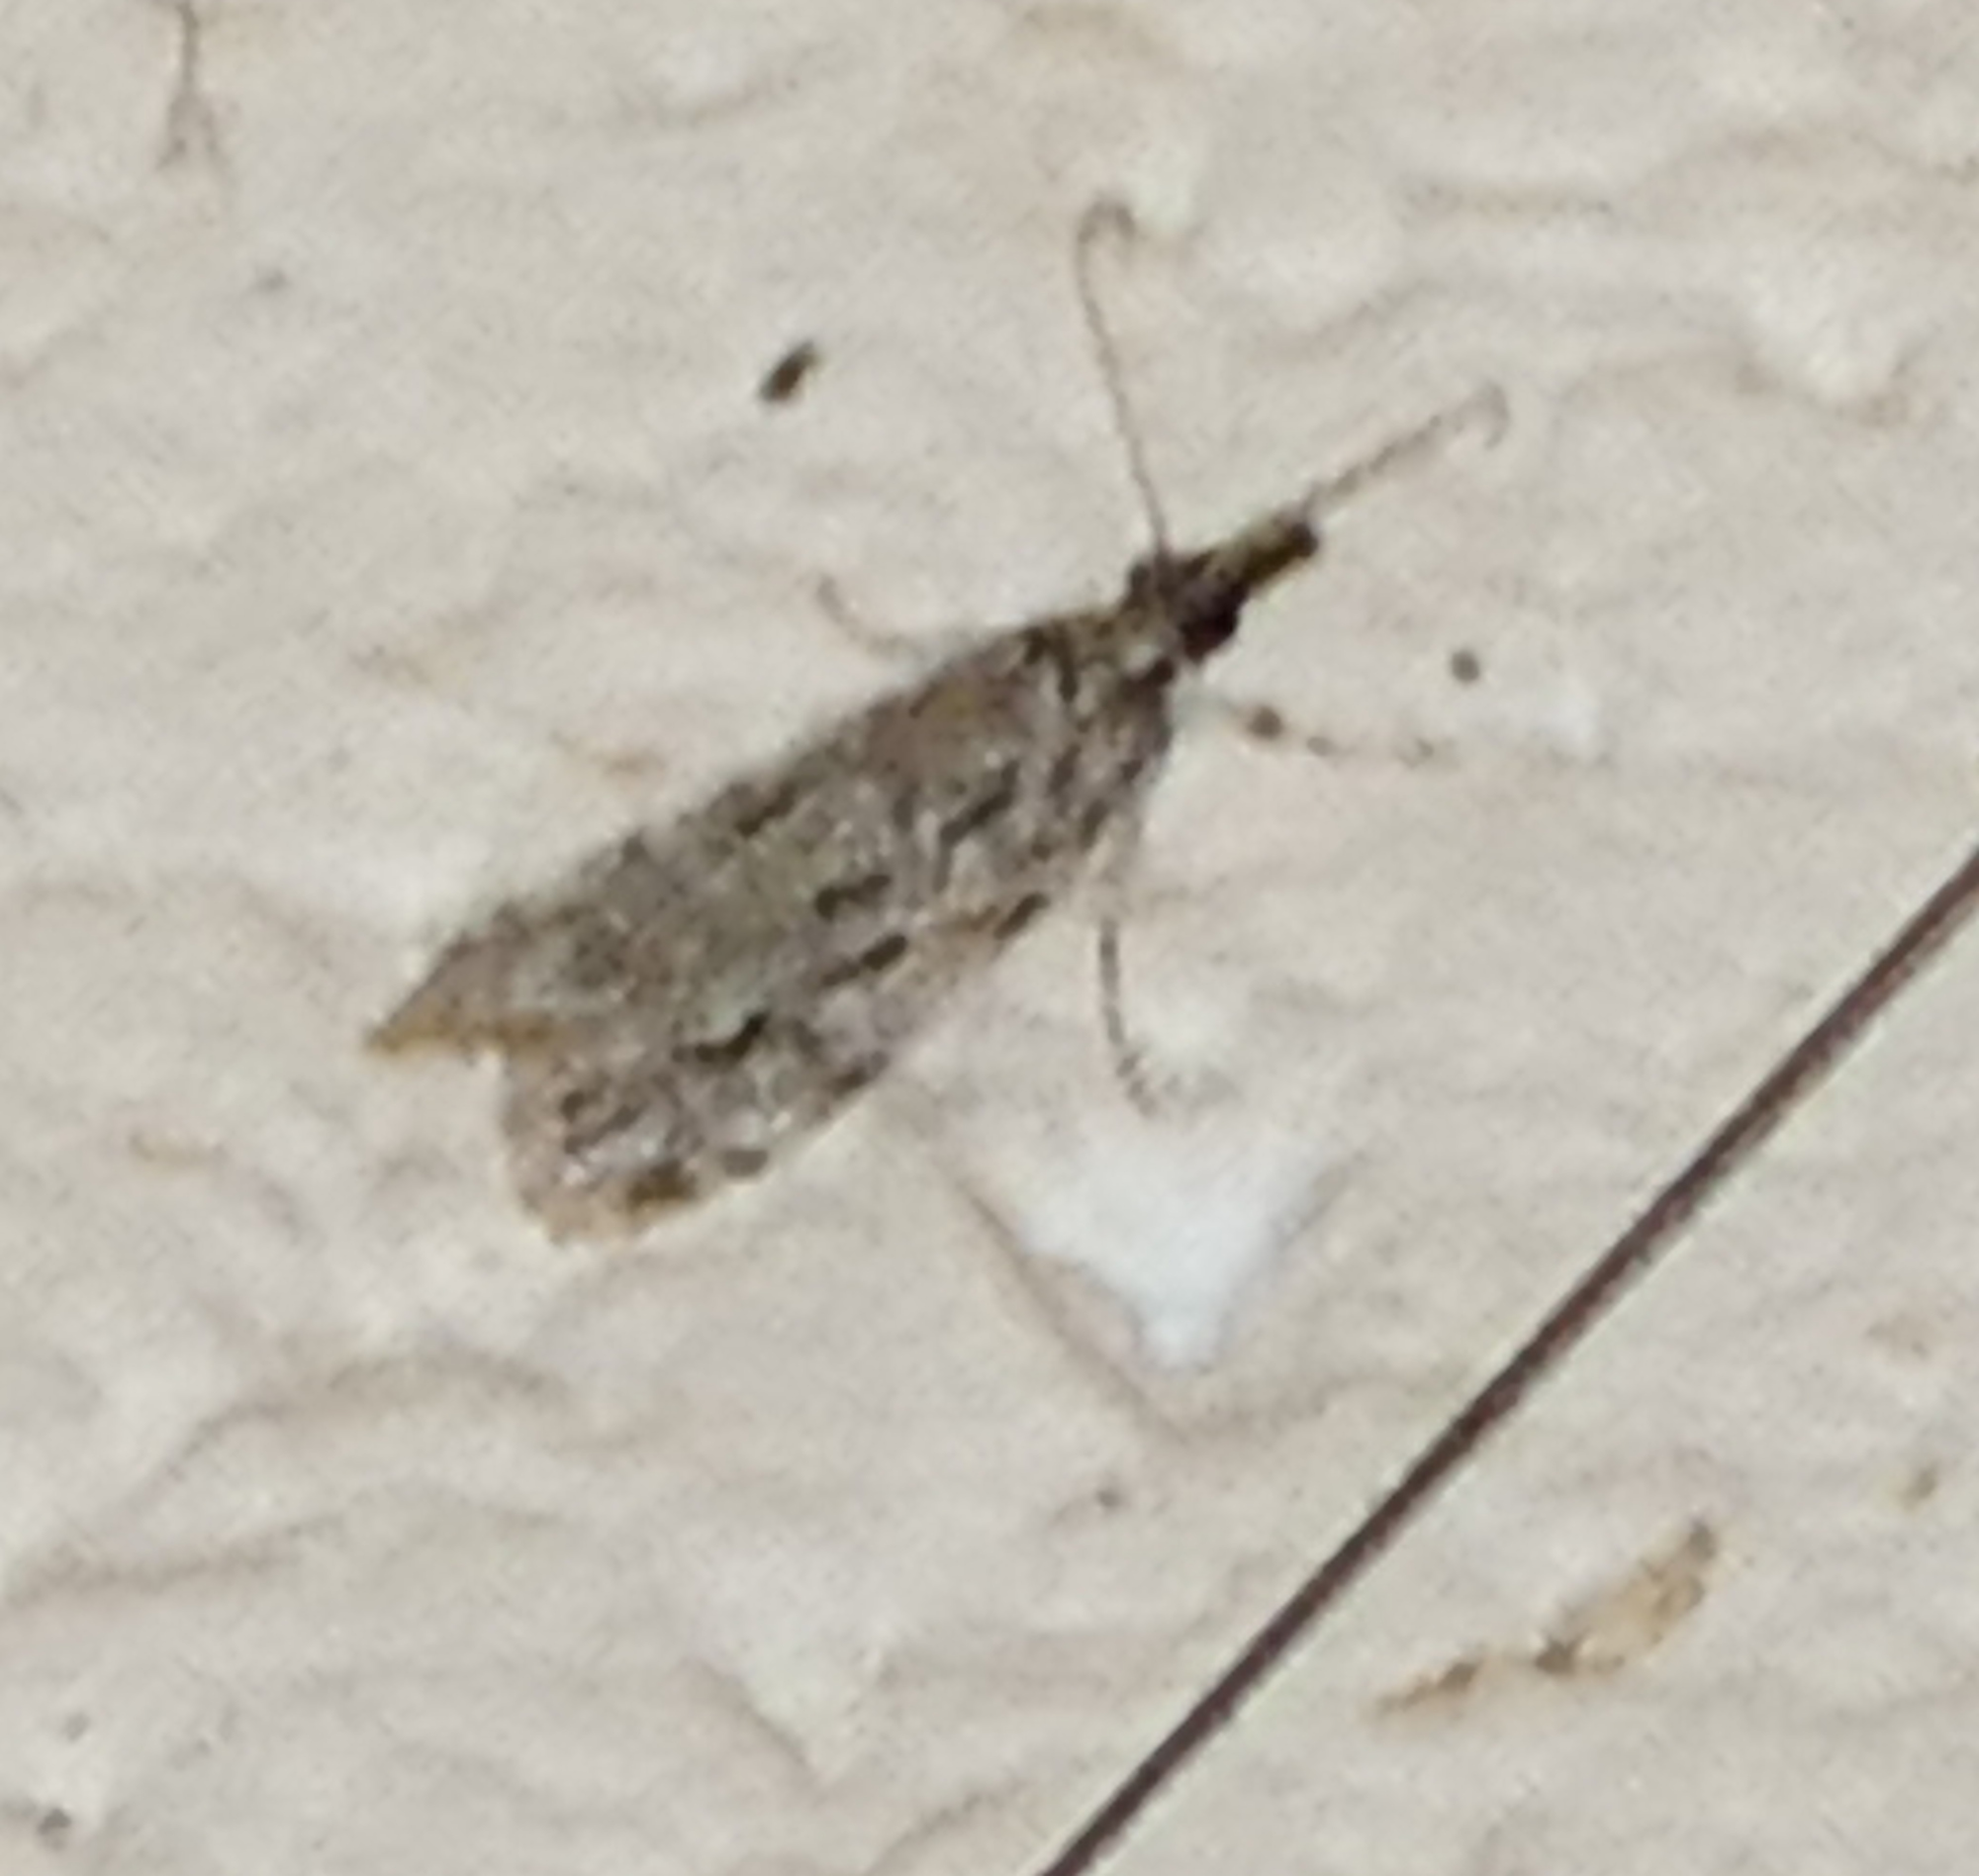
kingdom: Animalia
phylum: Arthropoda
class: Insecta
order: Lepidoptera
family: Crambidae
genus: Eudonia
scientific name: Eudonia strigalis
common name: Striped eudonia moth
